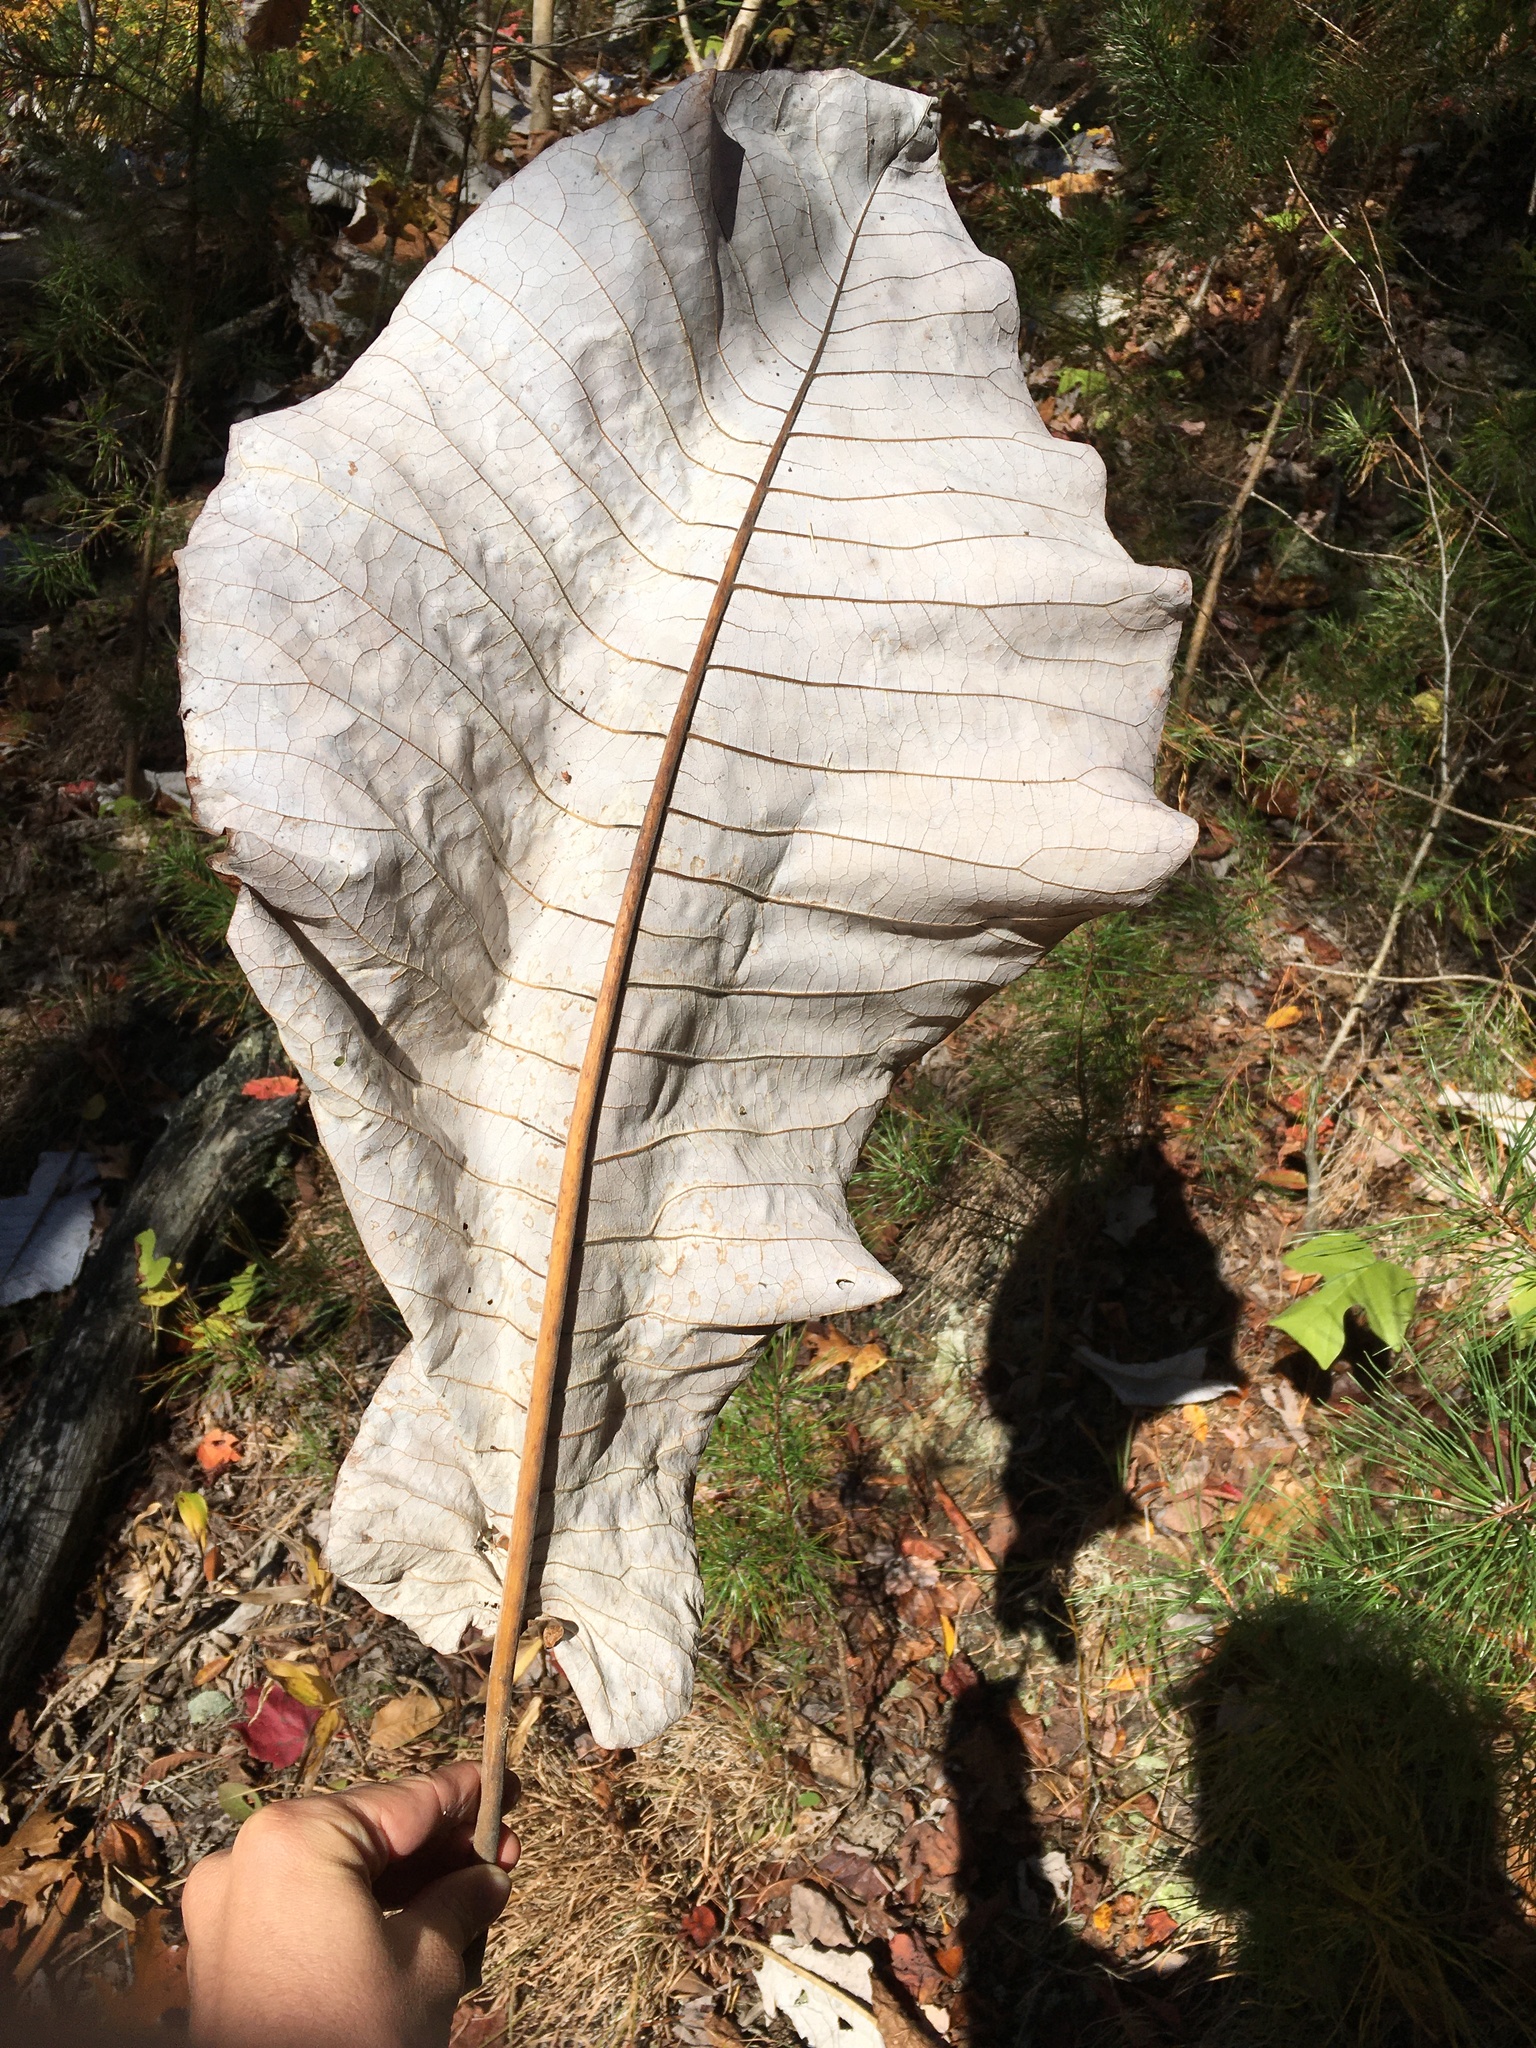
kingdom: Plantae
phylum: Tracheophyta
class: Magnoliopsida
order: Magnoliales
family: Magnoliaceae
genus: Magnolia
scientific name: Magnolia macrophylla
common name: Big-leaf magnolia
